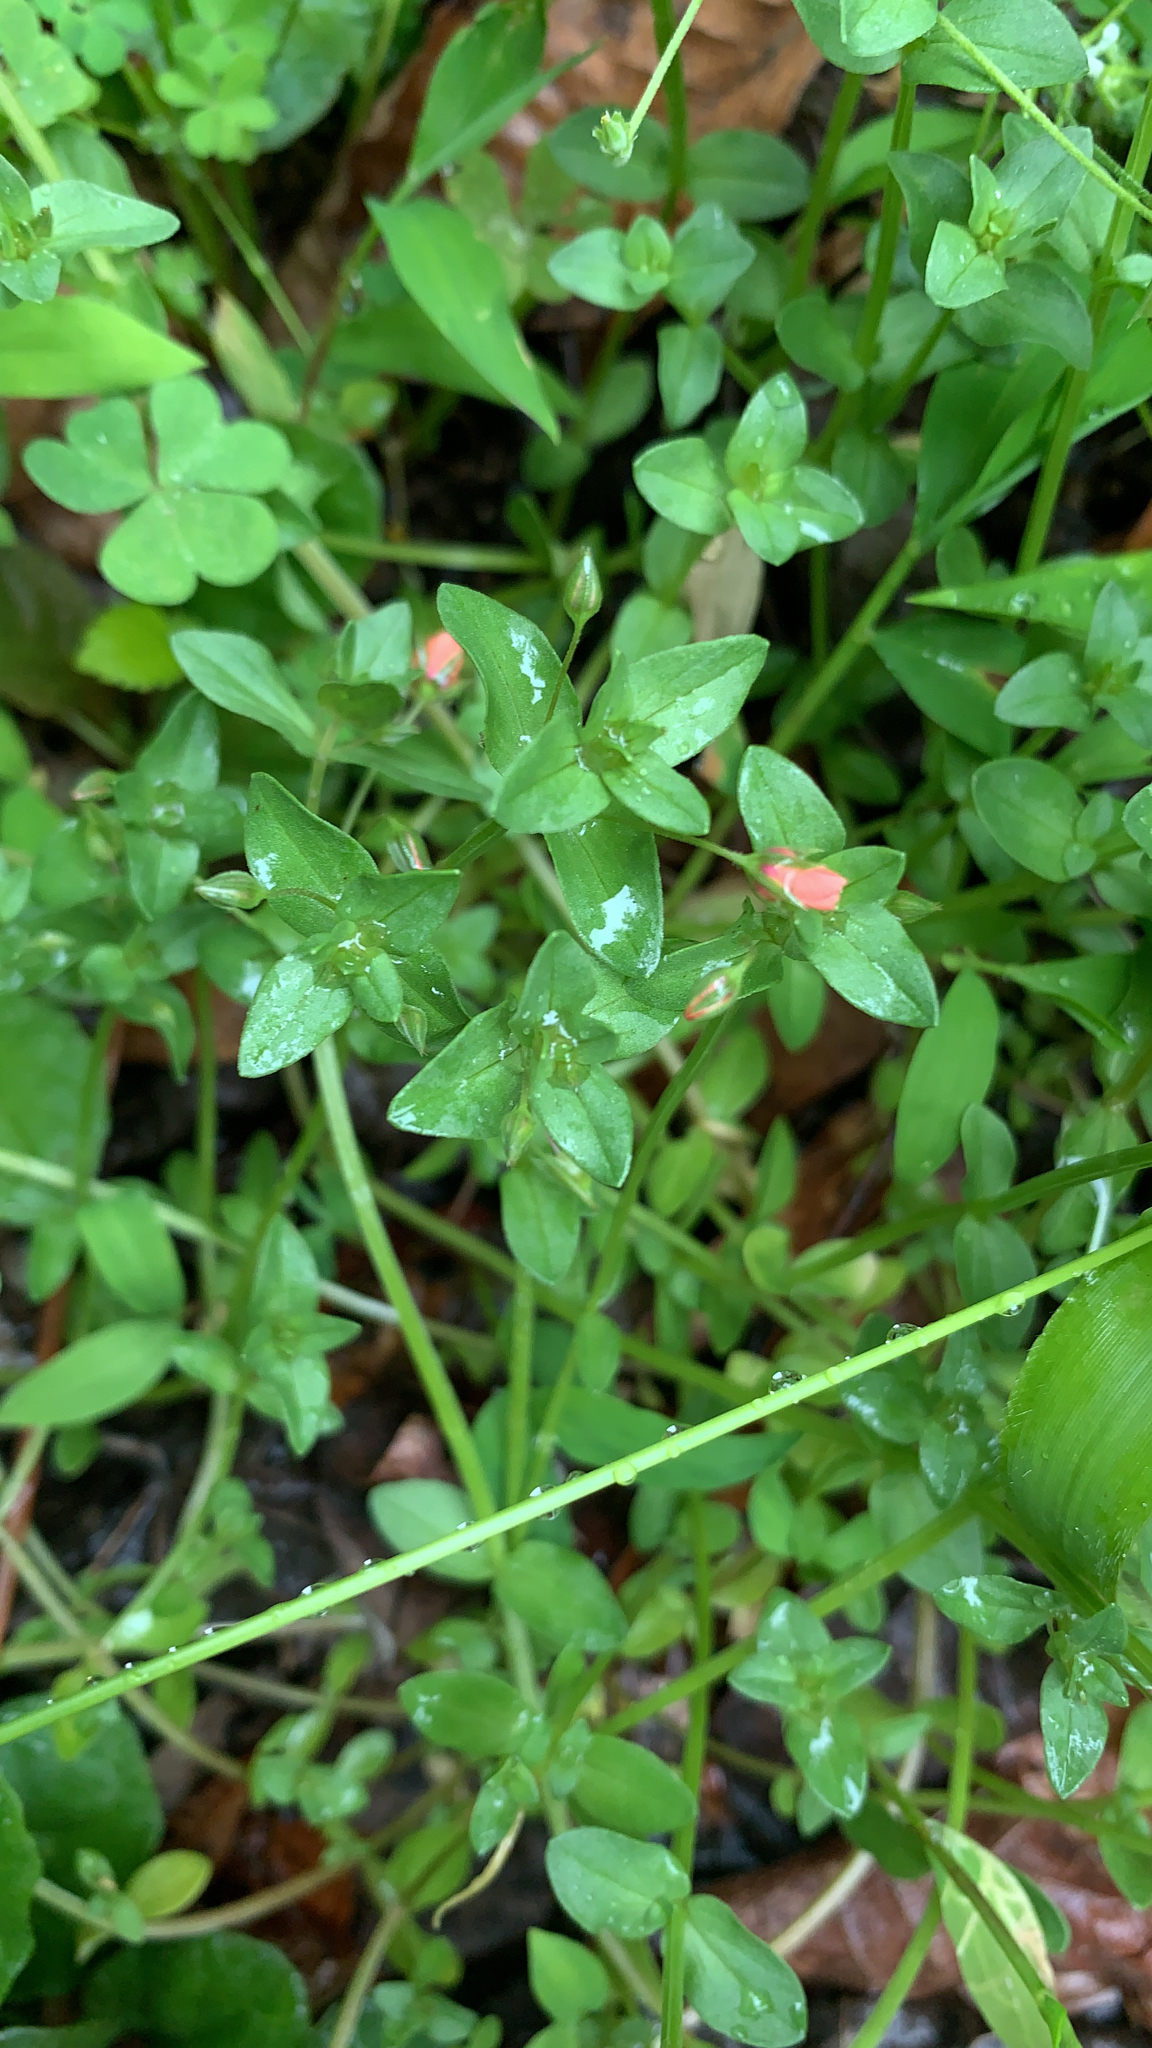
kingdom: Plantae
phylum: Tracheophyta
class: Magnoliopsida
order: Ericales
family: Primulaceae
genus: Lysimachia
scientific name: Lysimachia arvensis
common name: Scarlet pimpernel
